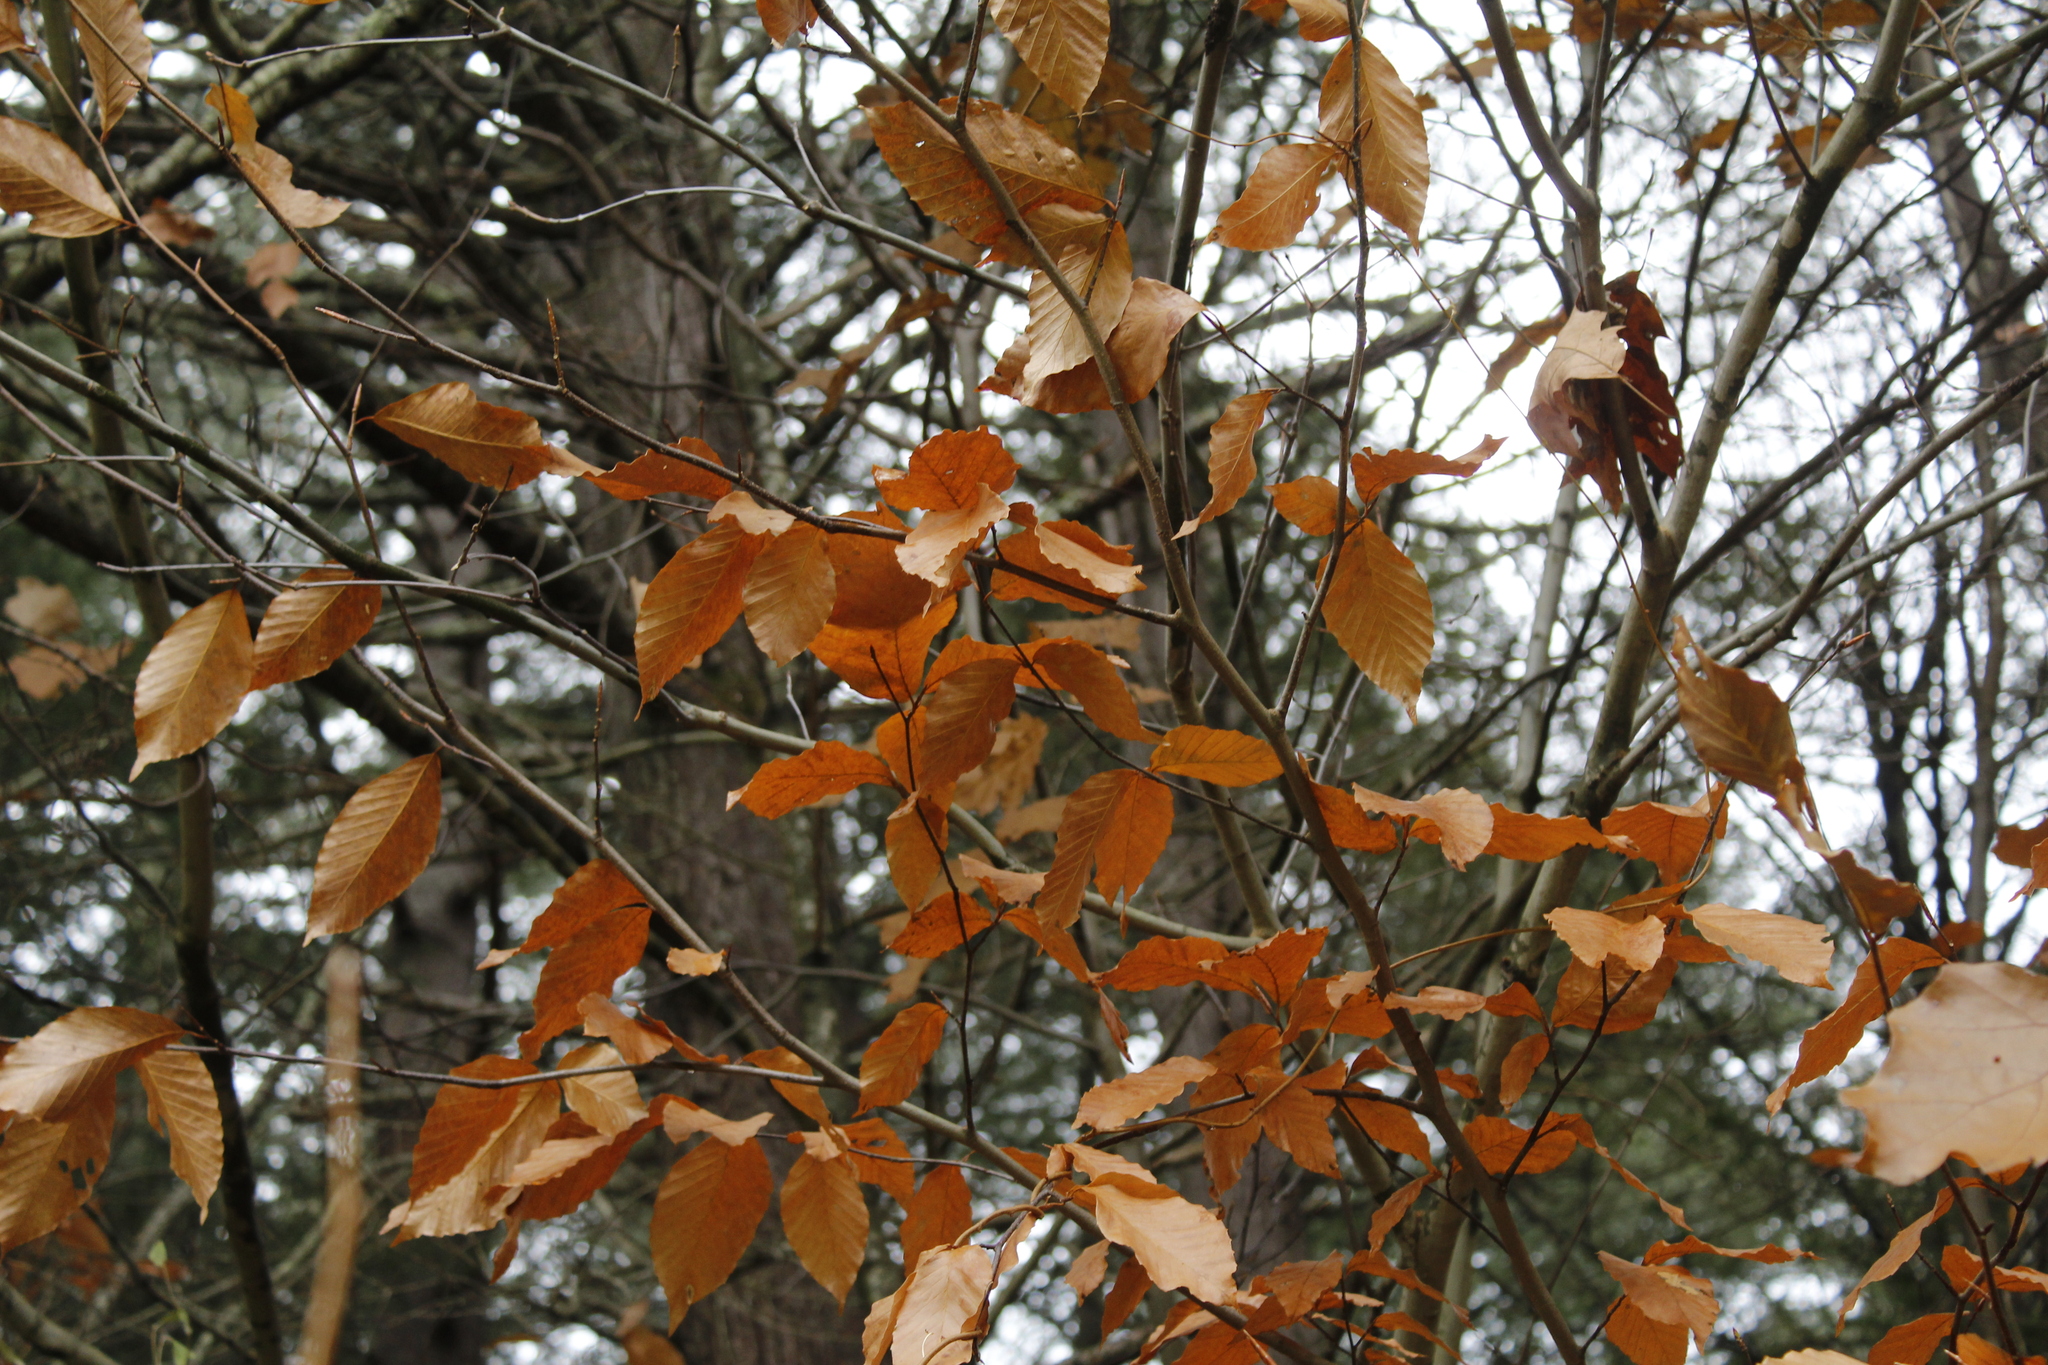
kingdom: Plantae
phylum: Tracheophyta
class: Magnoliopsida
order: Fagales
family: Fagaceae
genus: Fagus
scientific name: Fagus grandifolia
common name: American beech
